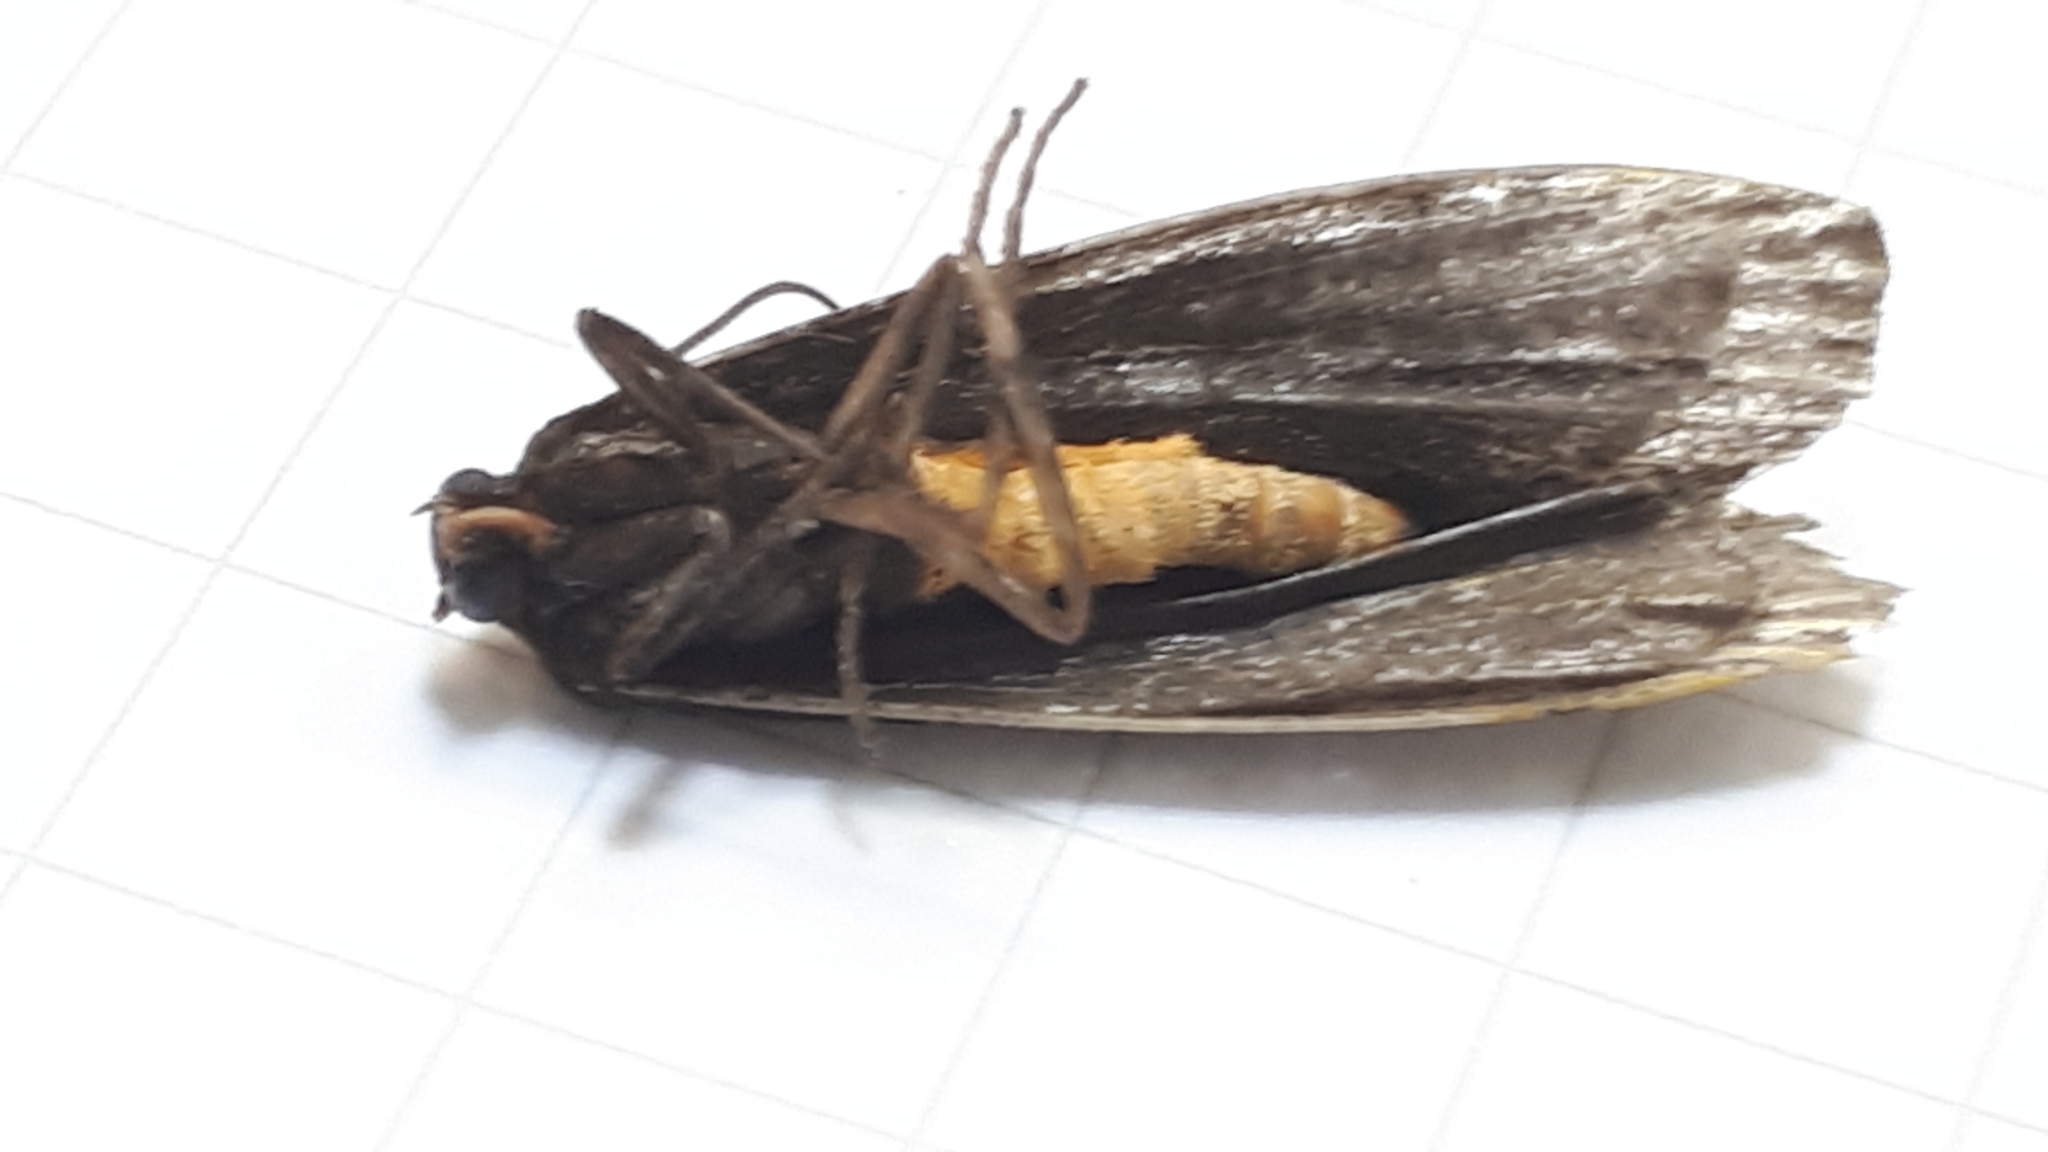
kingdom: Animalia
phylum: Arthropoda
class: Insecta
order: Lepidoptera
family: Erebidae
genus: Atolmis
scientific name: Atolmis rubricollis
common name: Red-necked footman
